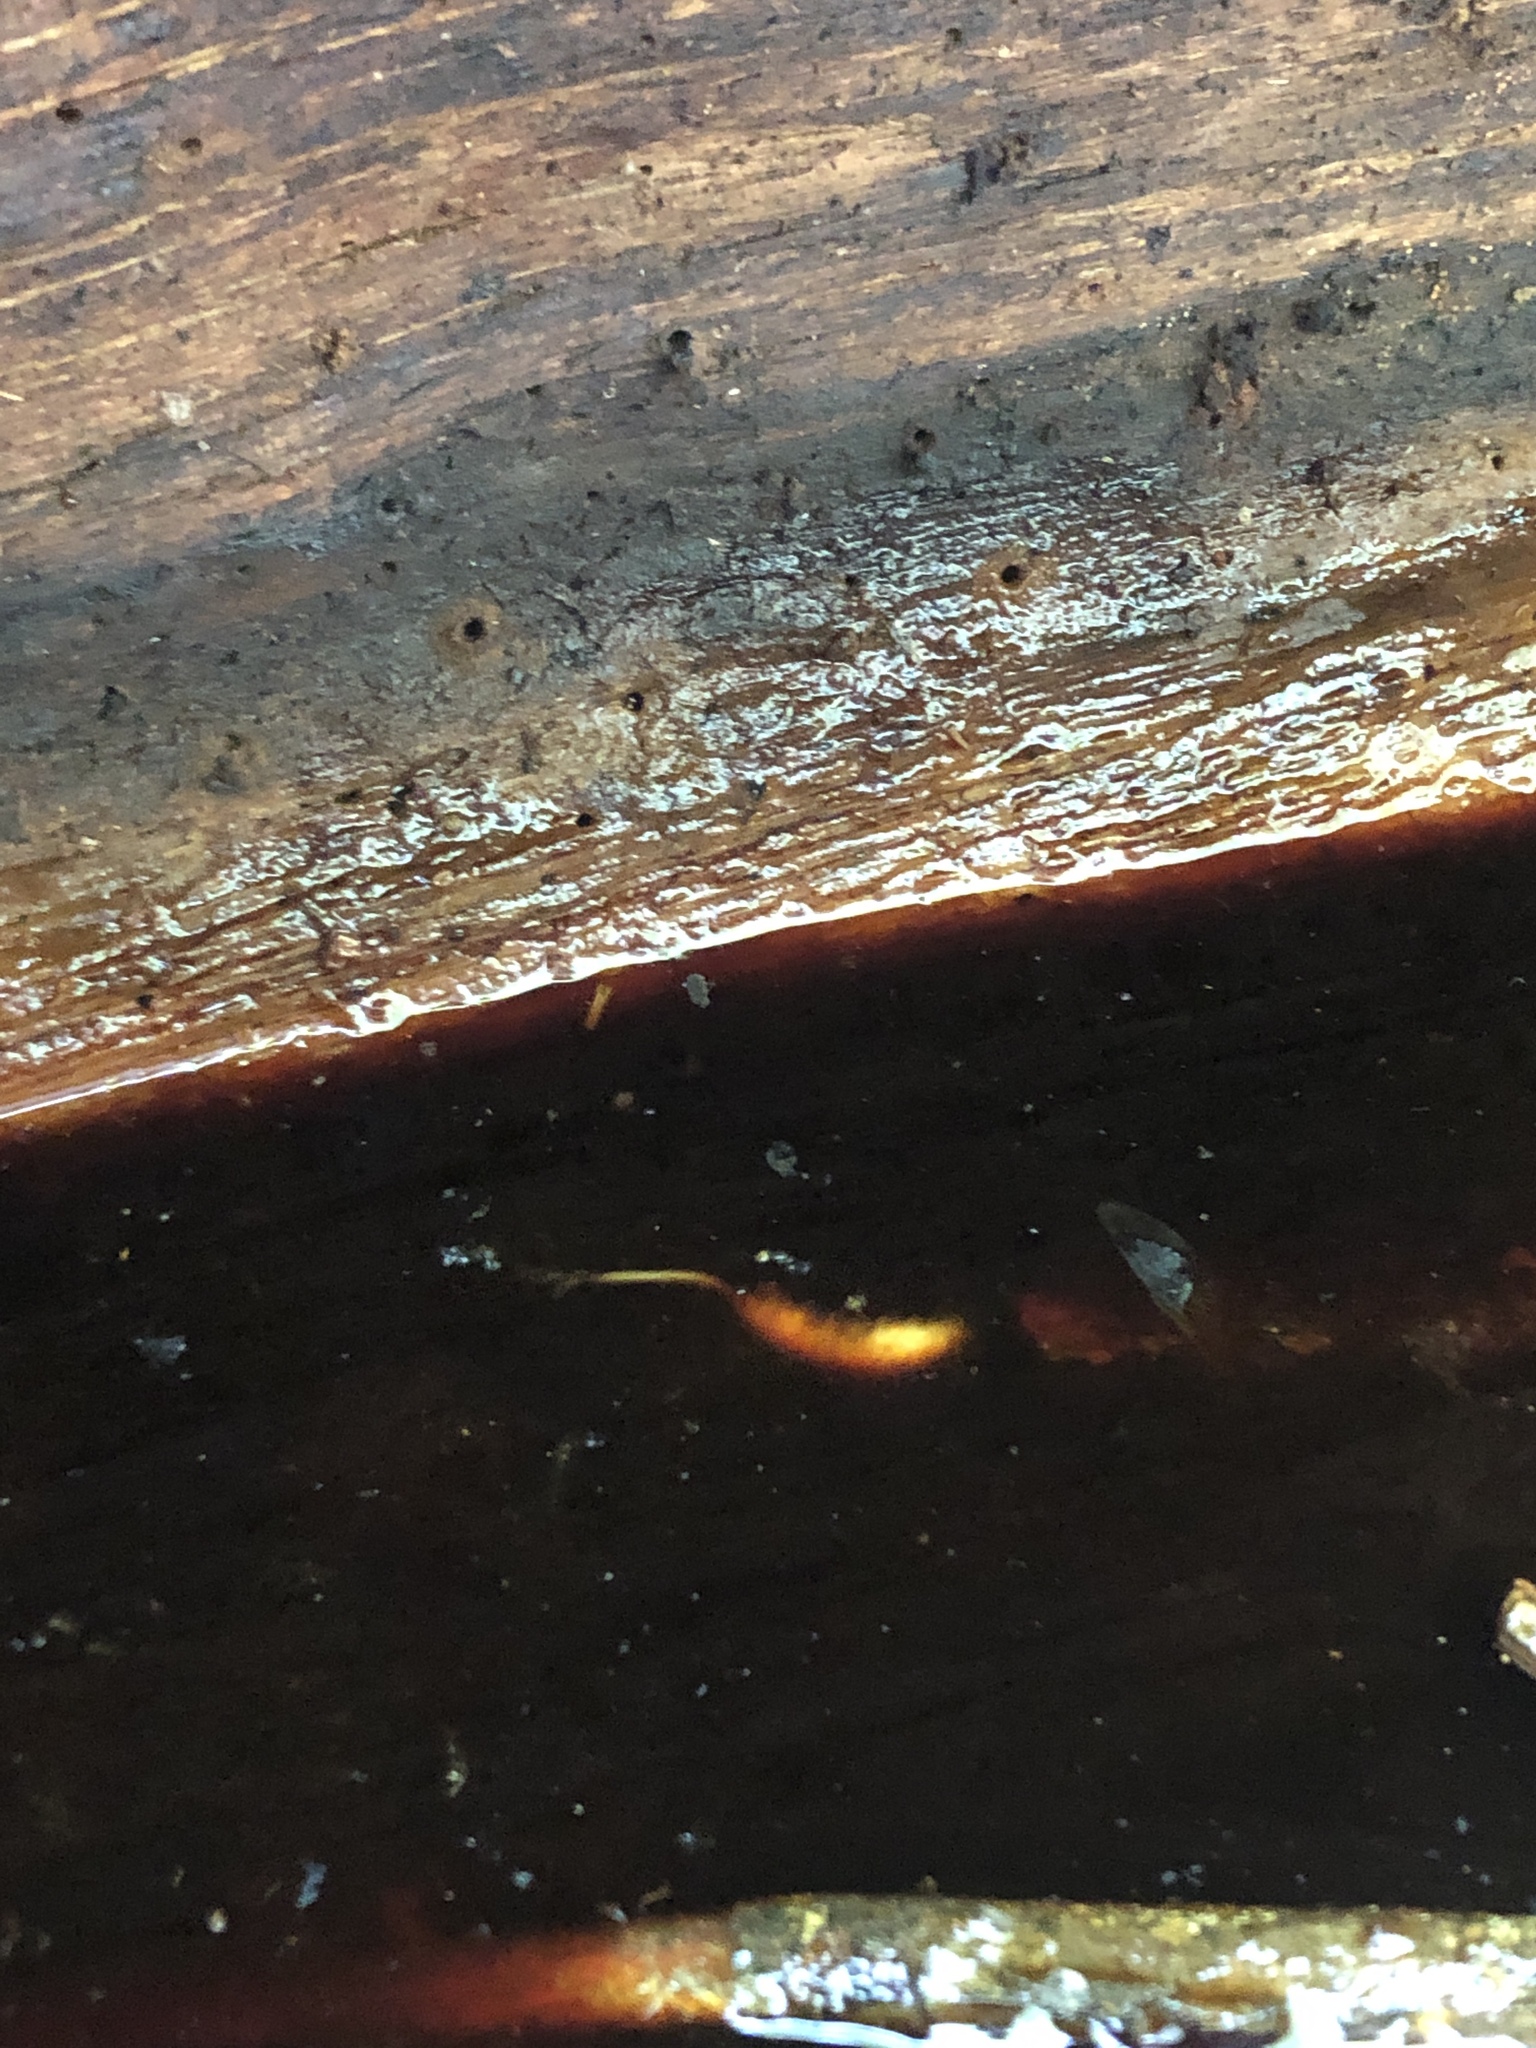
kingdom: Animalia
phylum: Arthropoda
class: Insecta
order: Diptera
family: Syrphidae
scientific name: Syrphidae
